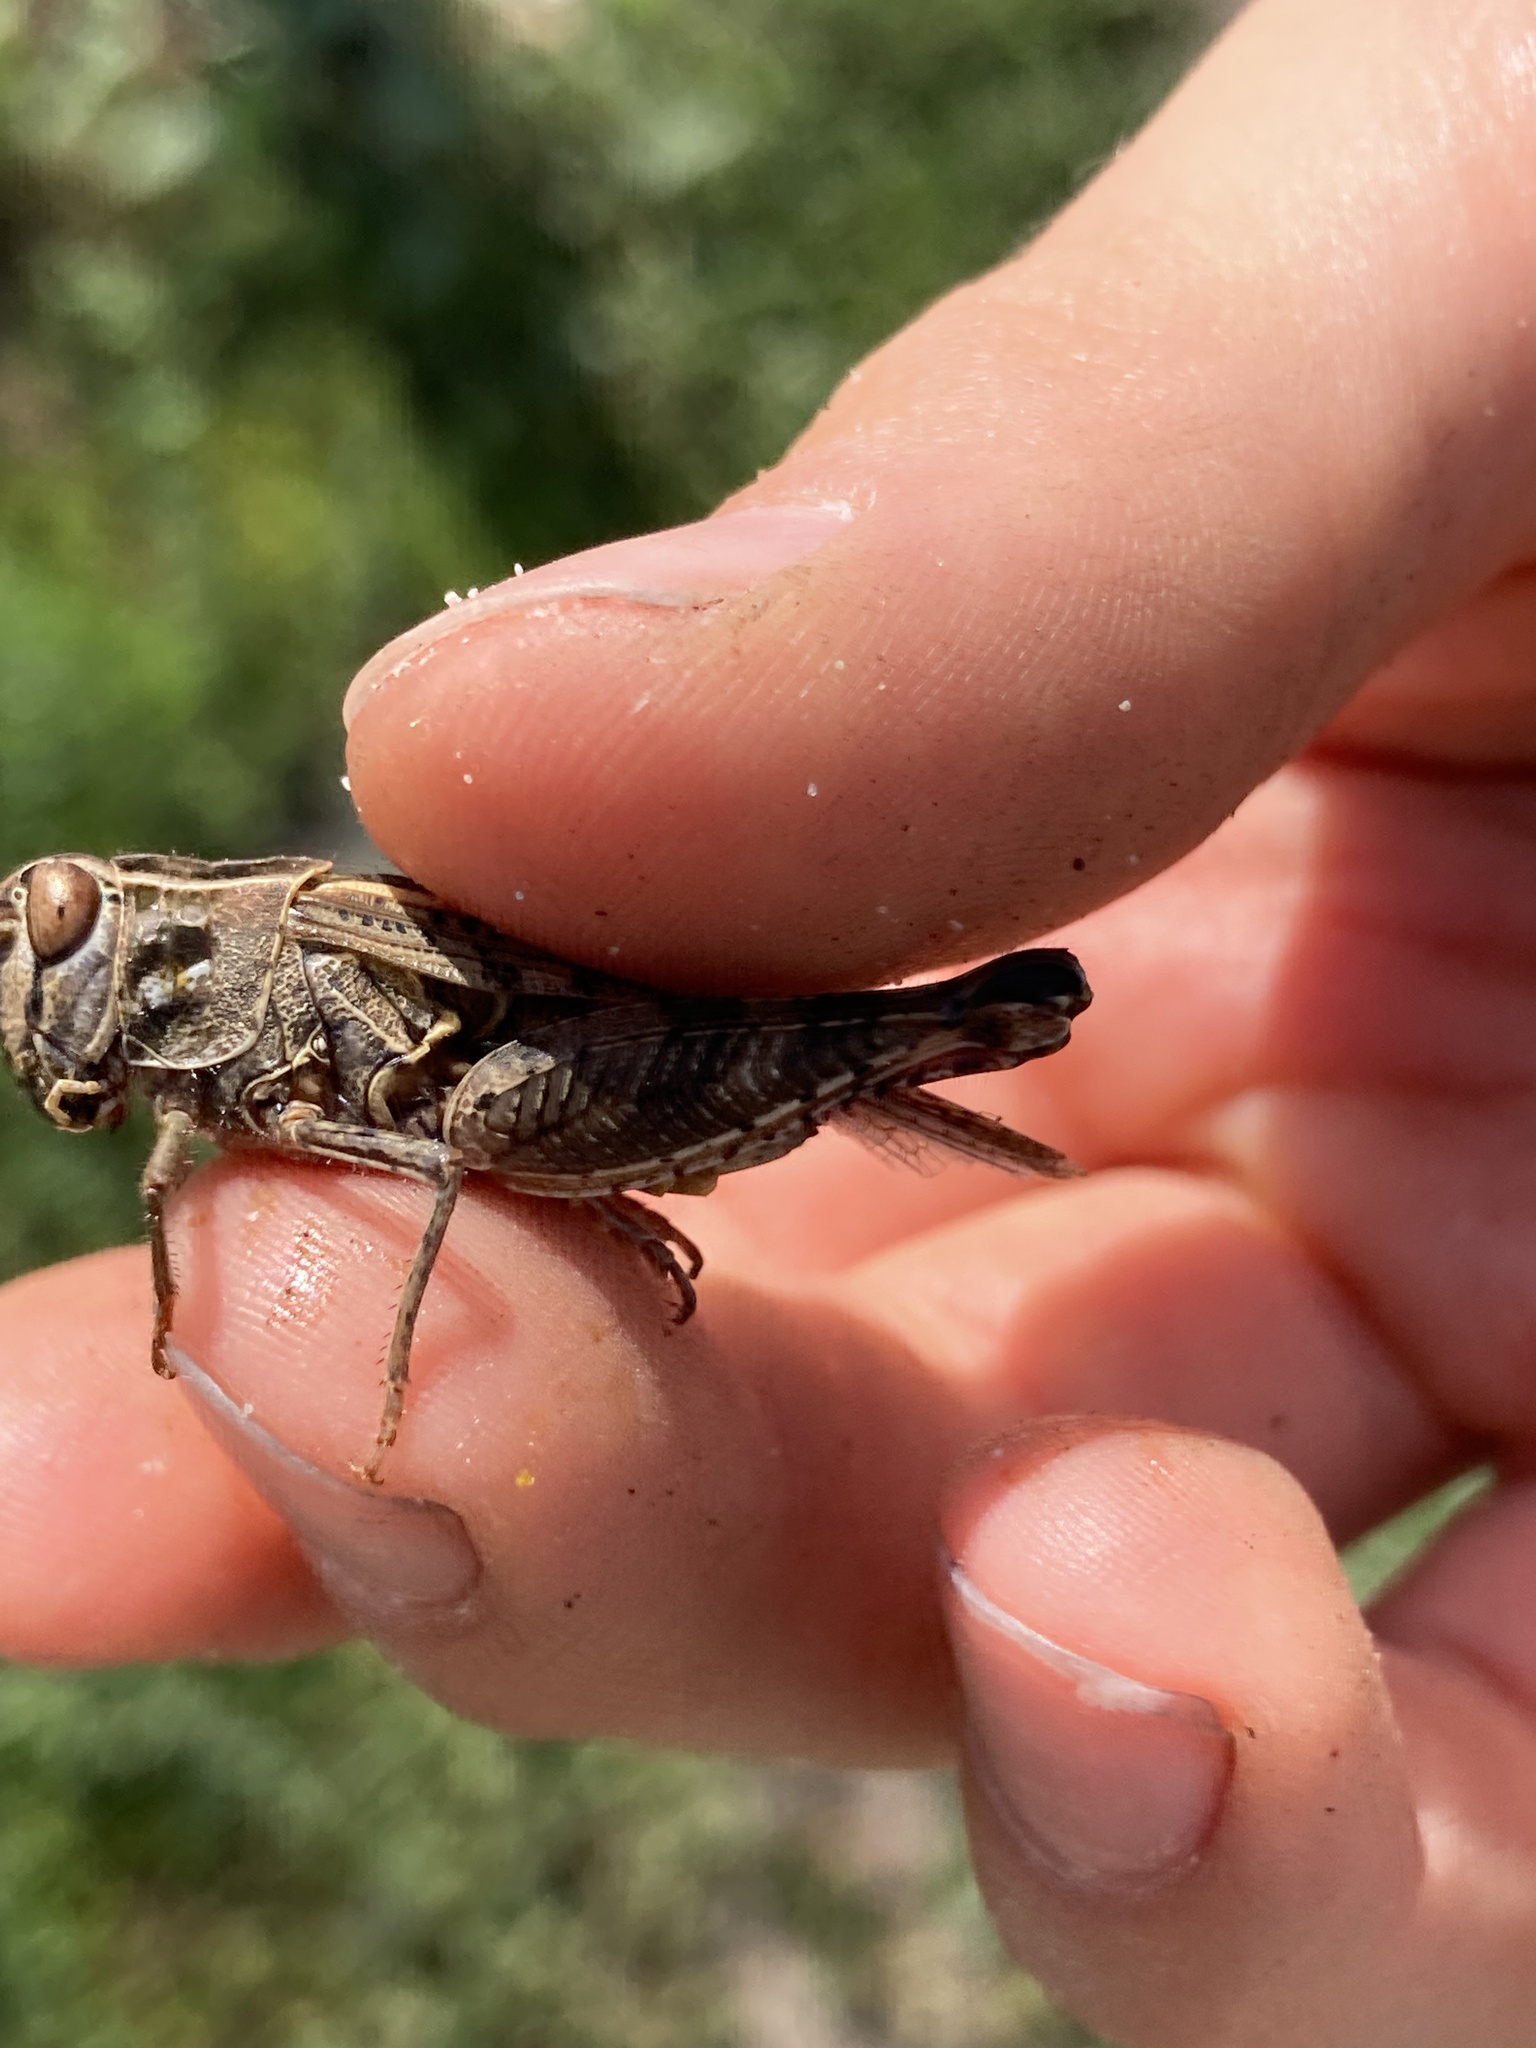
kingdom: Animalia
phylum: Arthropoda
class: Insecta
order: Orthoptera
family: Acrididae
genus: Calliptamus
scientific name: Calliptamus italicus
